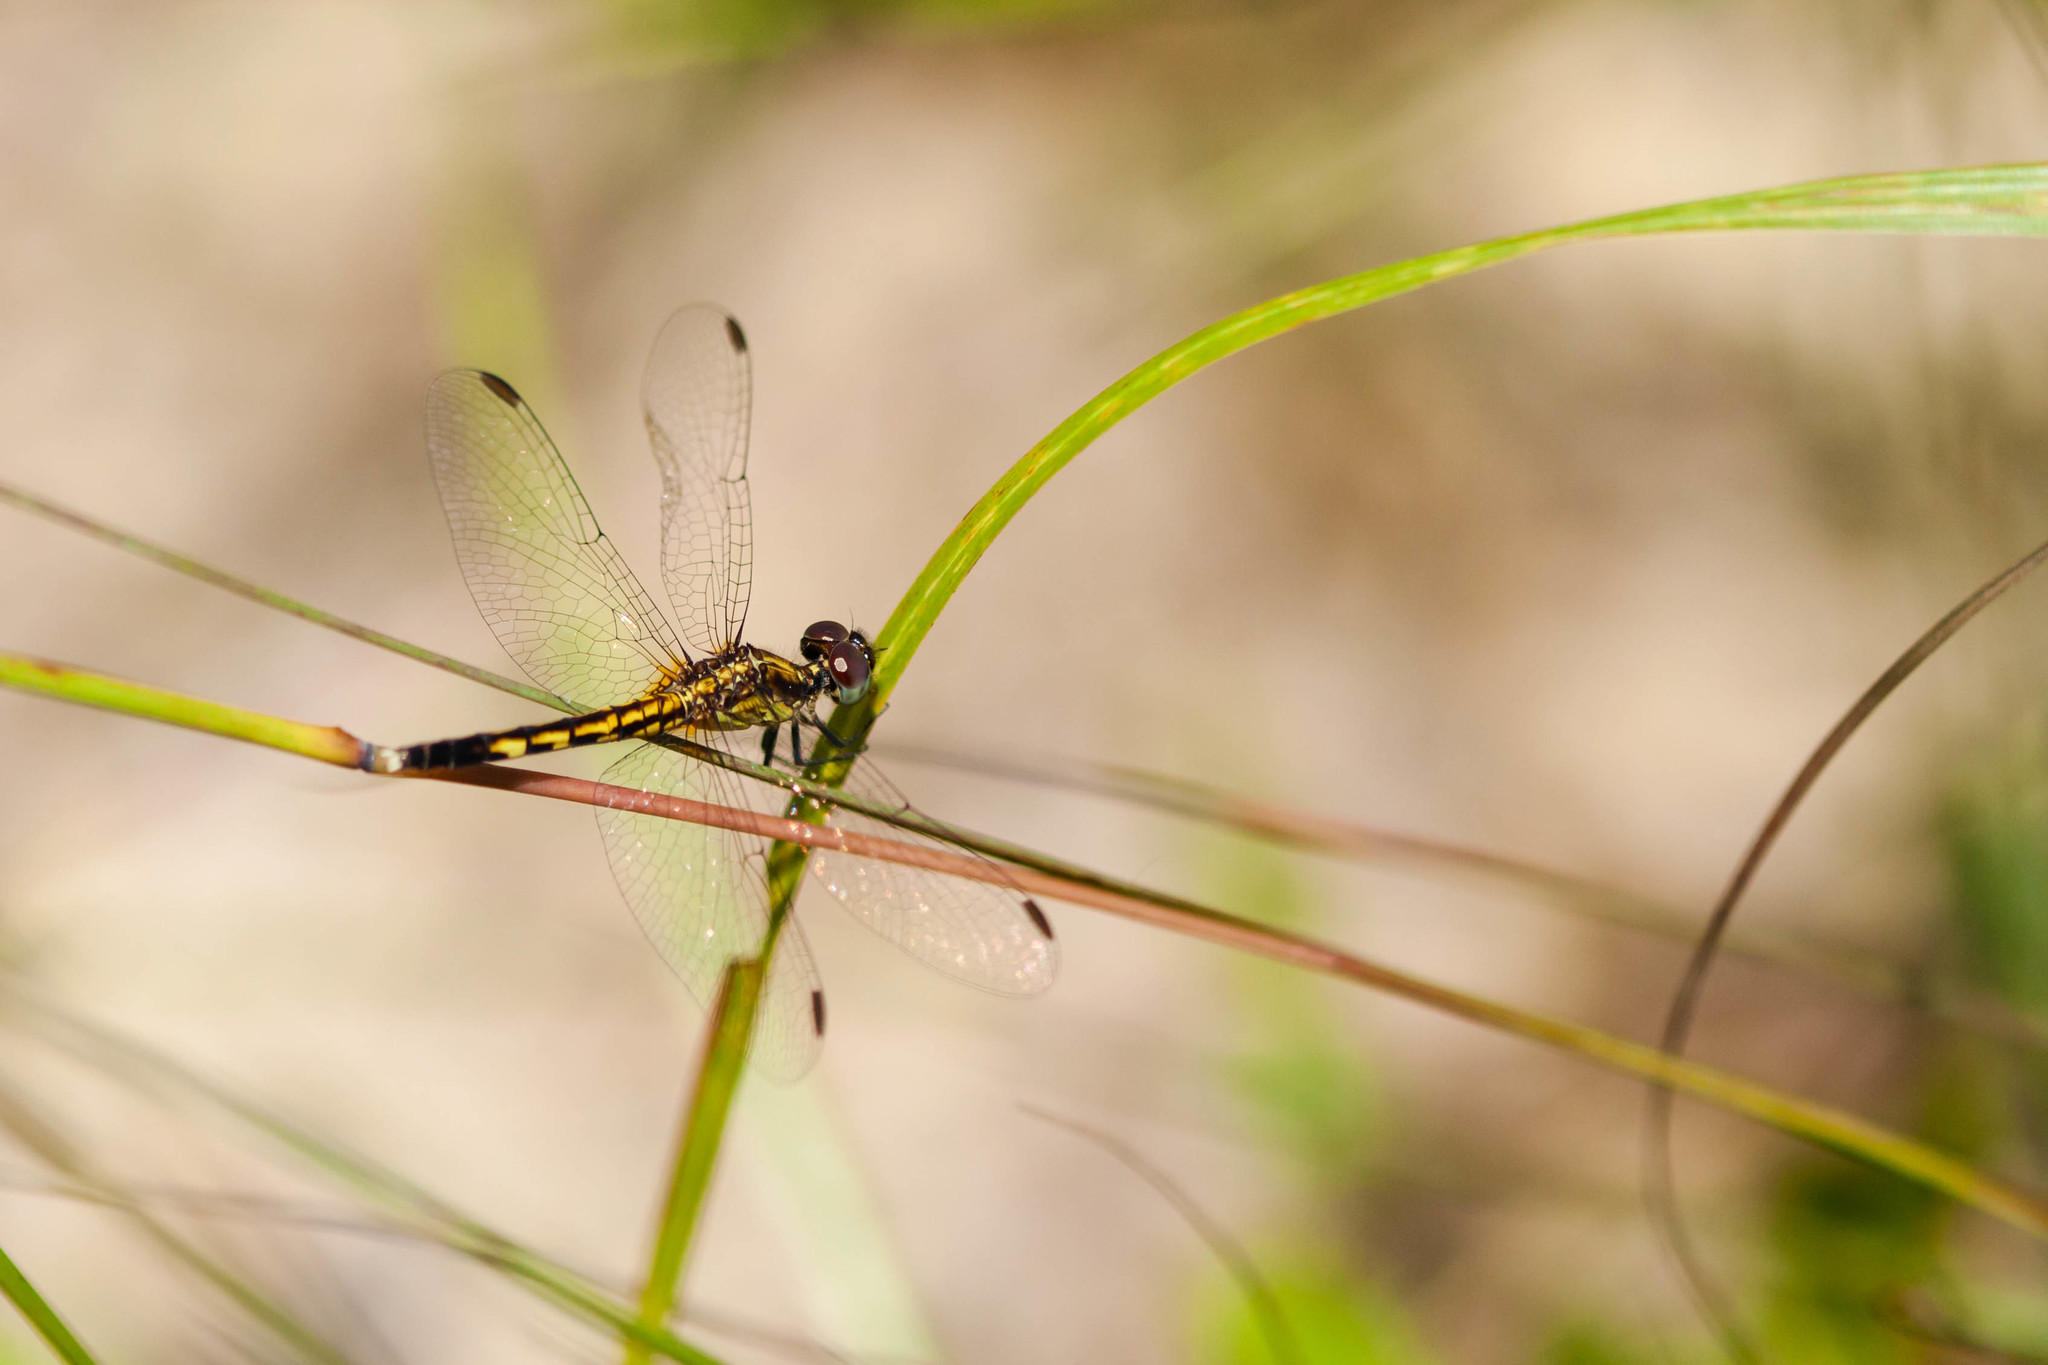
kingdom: Animalia
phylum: Arthropoda
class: Insecta
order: Odonata
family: Libellulidae
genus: Erythrodiplax
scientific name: Erythrodiplax minuscula
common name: Little blue dragonlet
